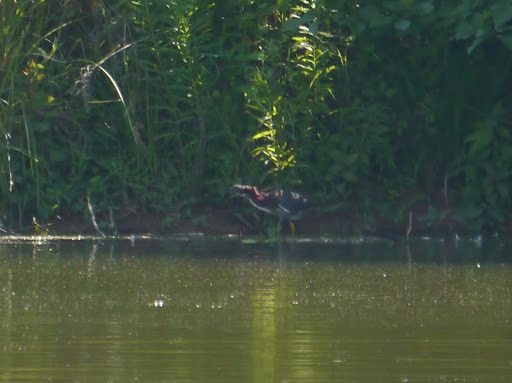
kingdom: Animalia
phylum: Chordata
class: Aves
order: Pelecaniformes
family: Ardeidae
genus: Butorides
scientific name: Butorides virescens
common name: Green heron
